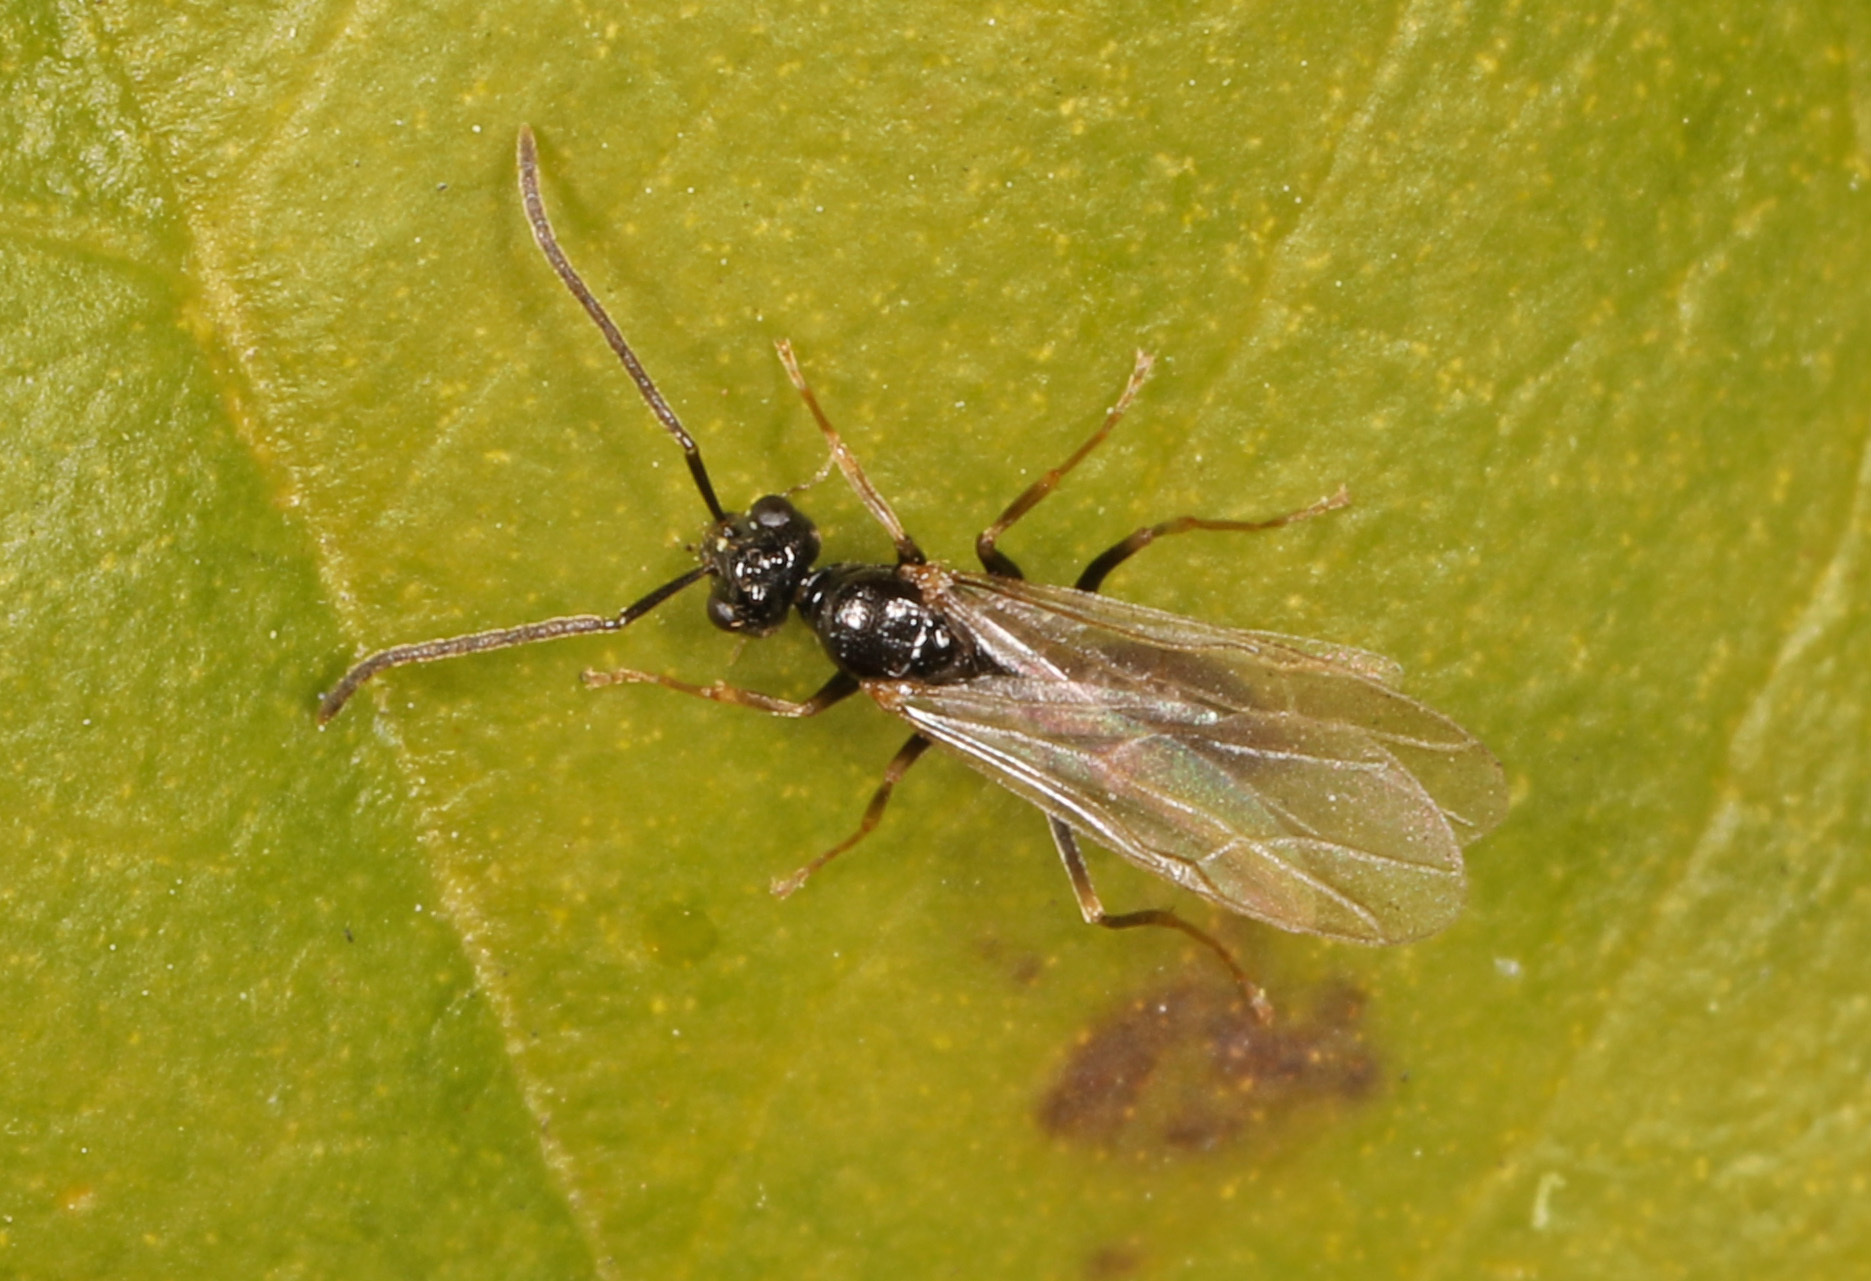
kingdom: Animalia
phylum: Arthropoda
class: Insecta
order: Hymenoptera
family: Formicidae
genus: Prenolepis
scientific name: Prenolepis imparis
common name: Small honey ant
